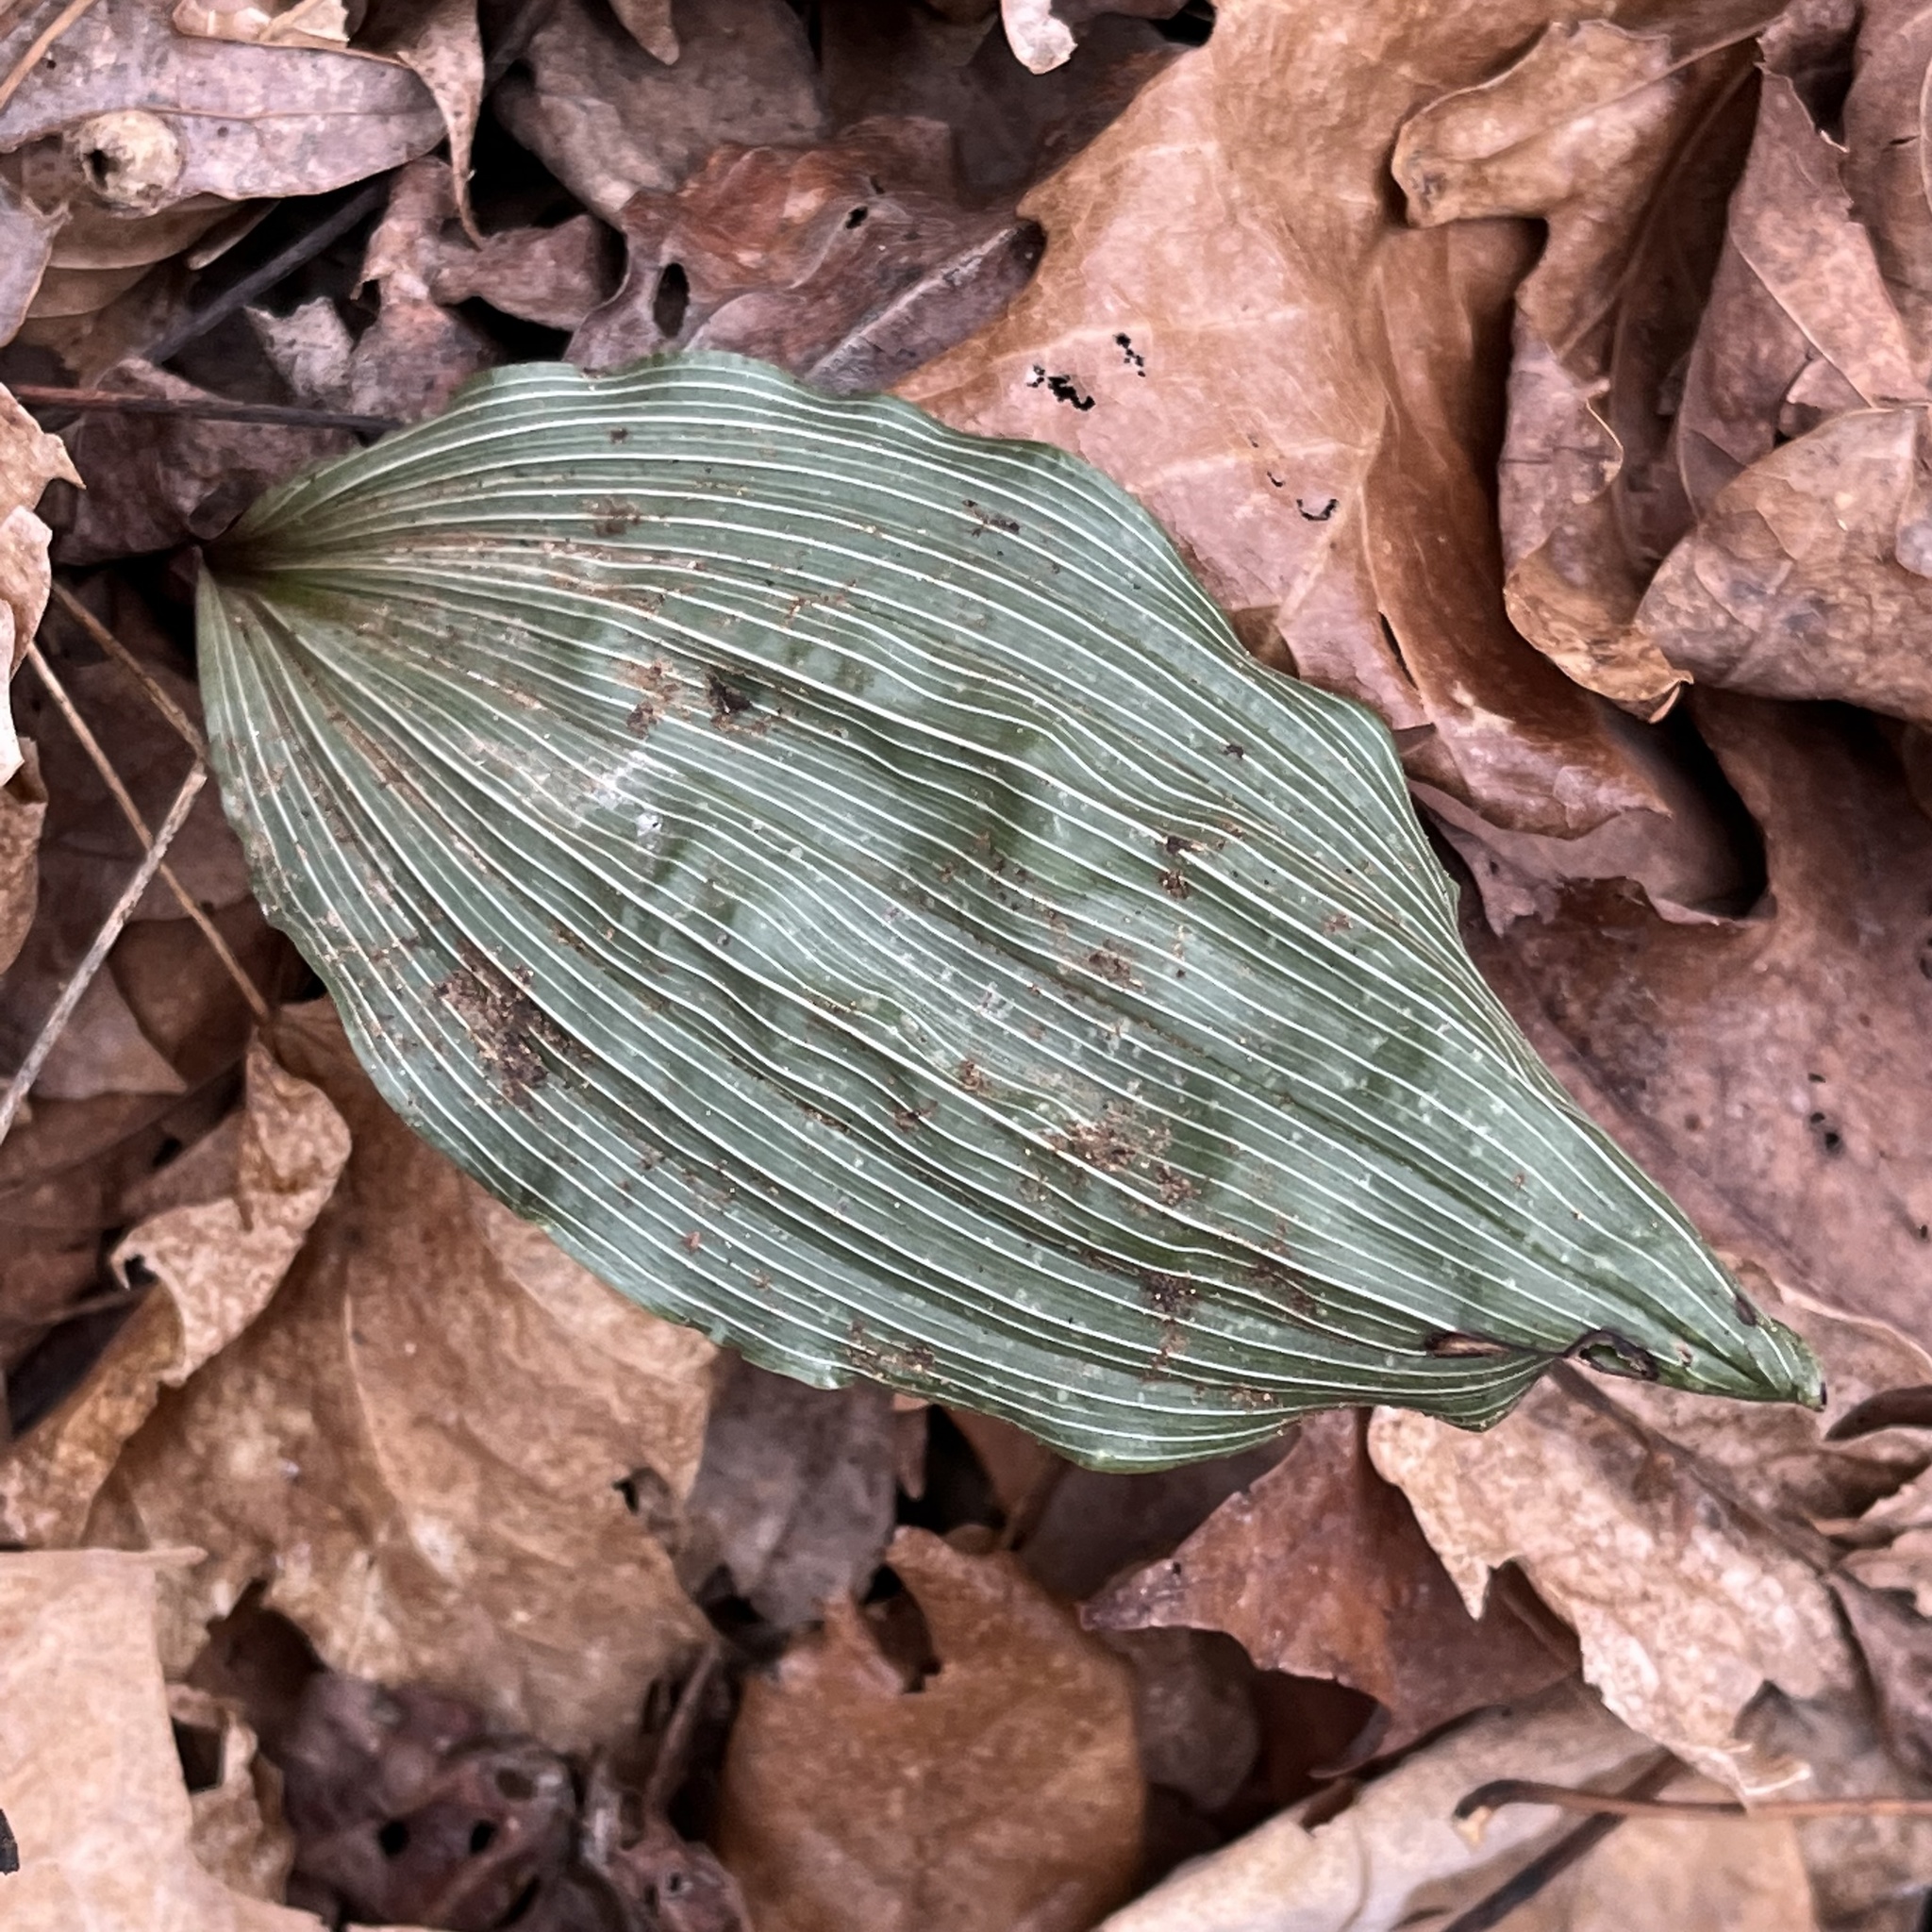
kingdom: Plantae
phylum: Tracheophyta
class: Liliopsida
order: Asparagales
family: Orchidaceae
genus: Aplectrum
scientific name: Aplectrum hyemale
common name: Adam-and-eve
